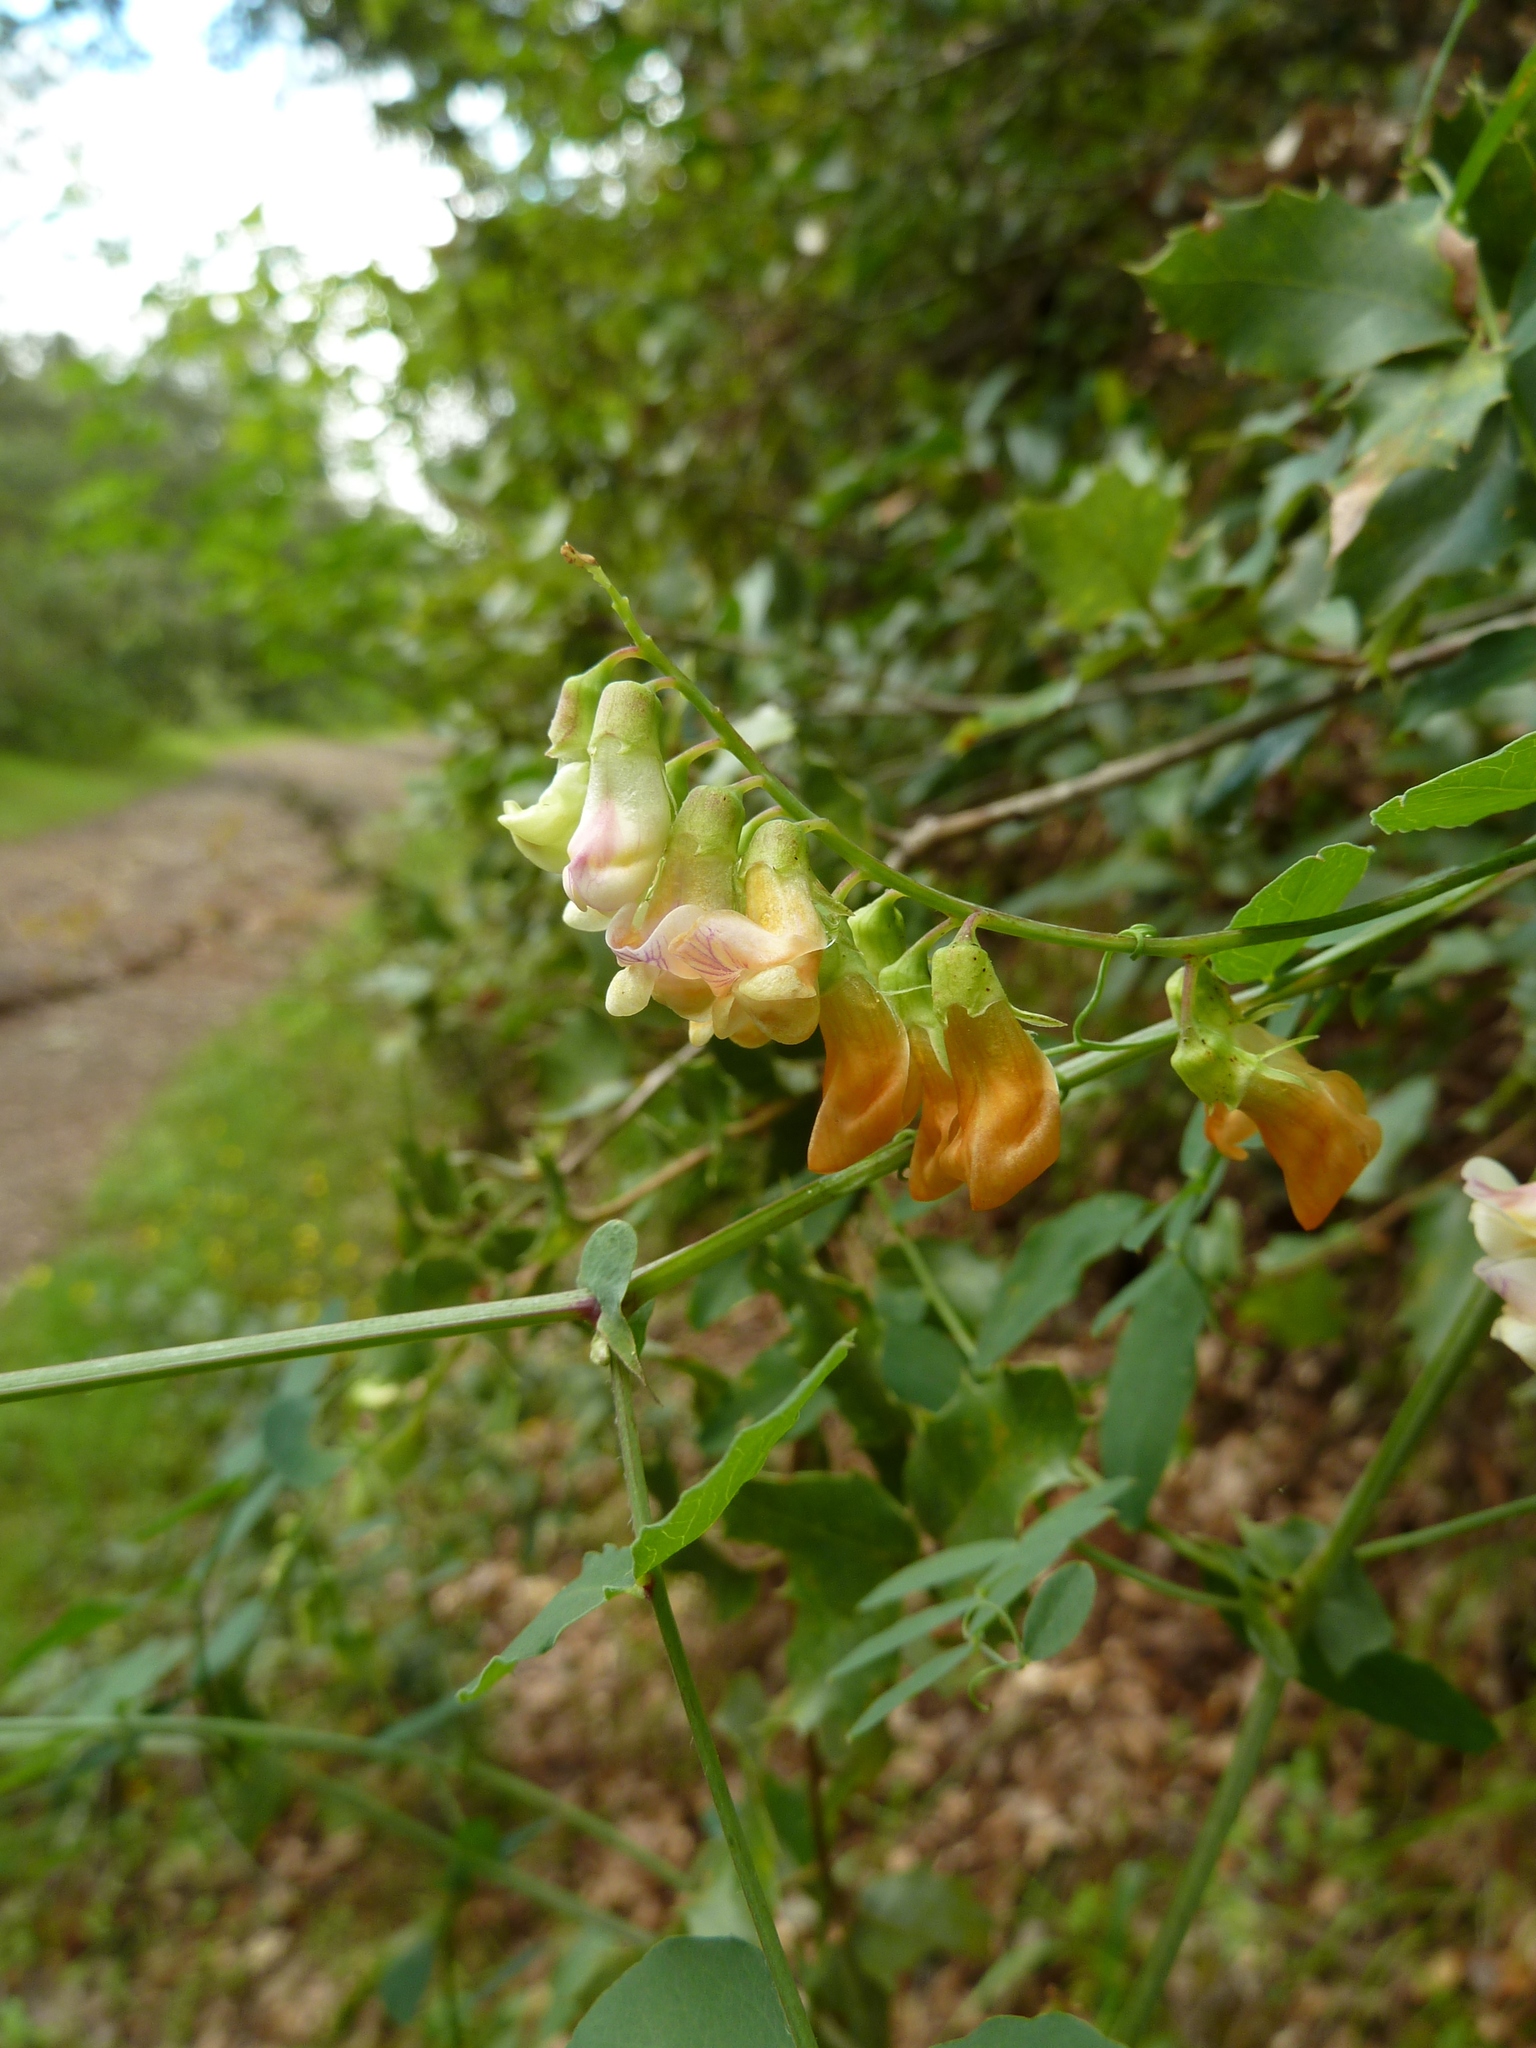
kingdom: Plantae
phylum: Tracheophyta
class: Magnoliopsida
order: Fabales
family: Fabaceae
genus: Lathyrus
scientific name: Lathyrus sulphureus
